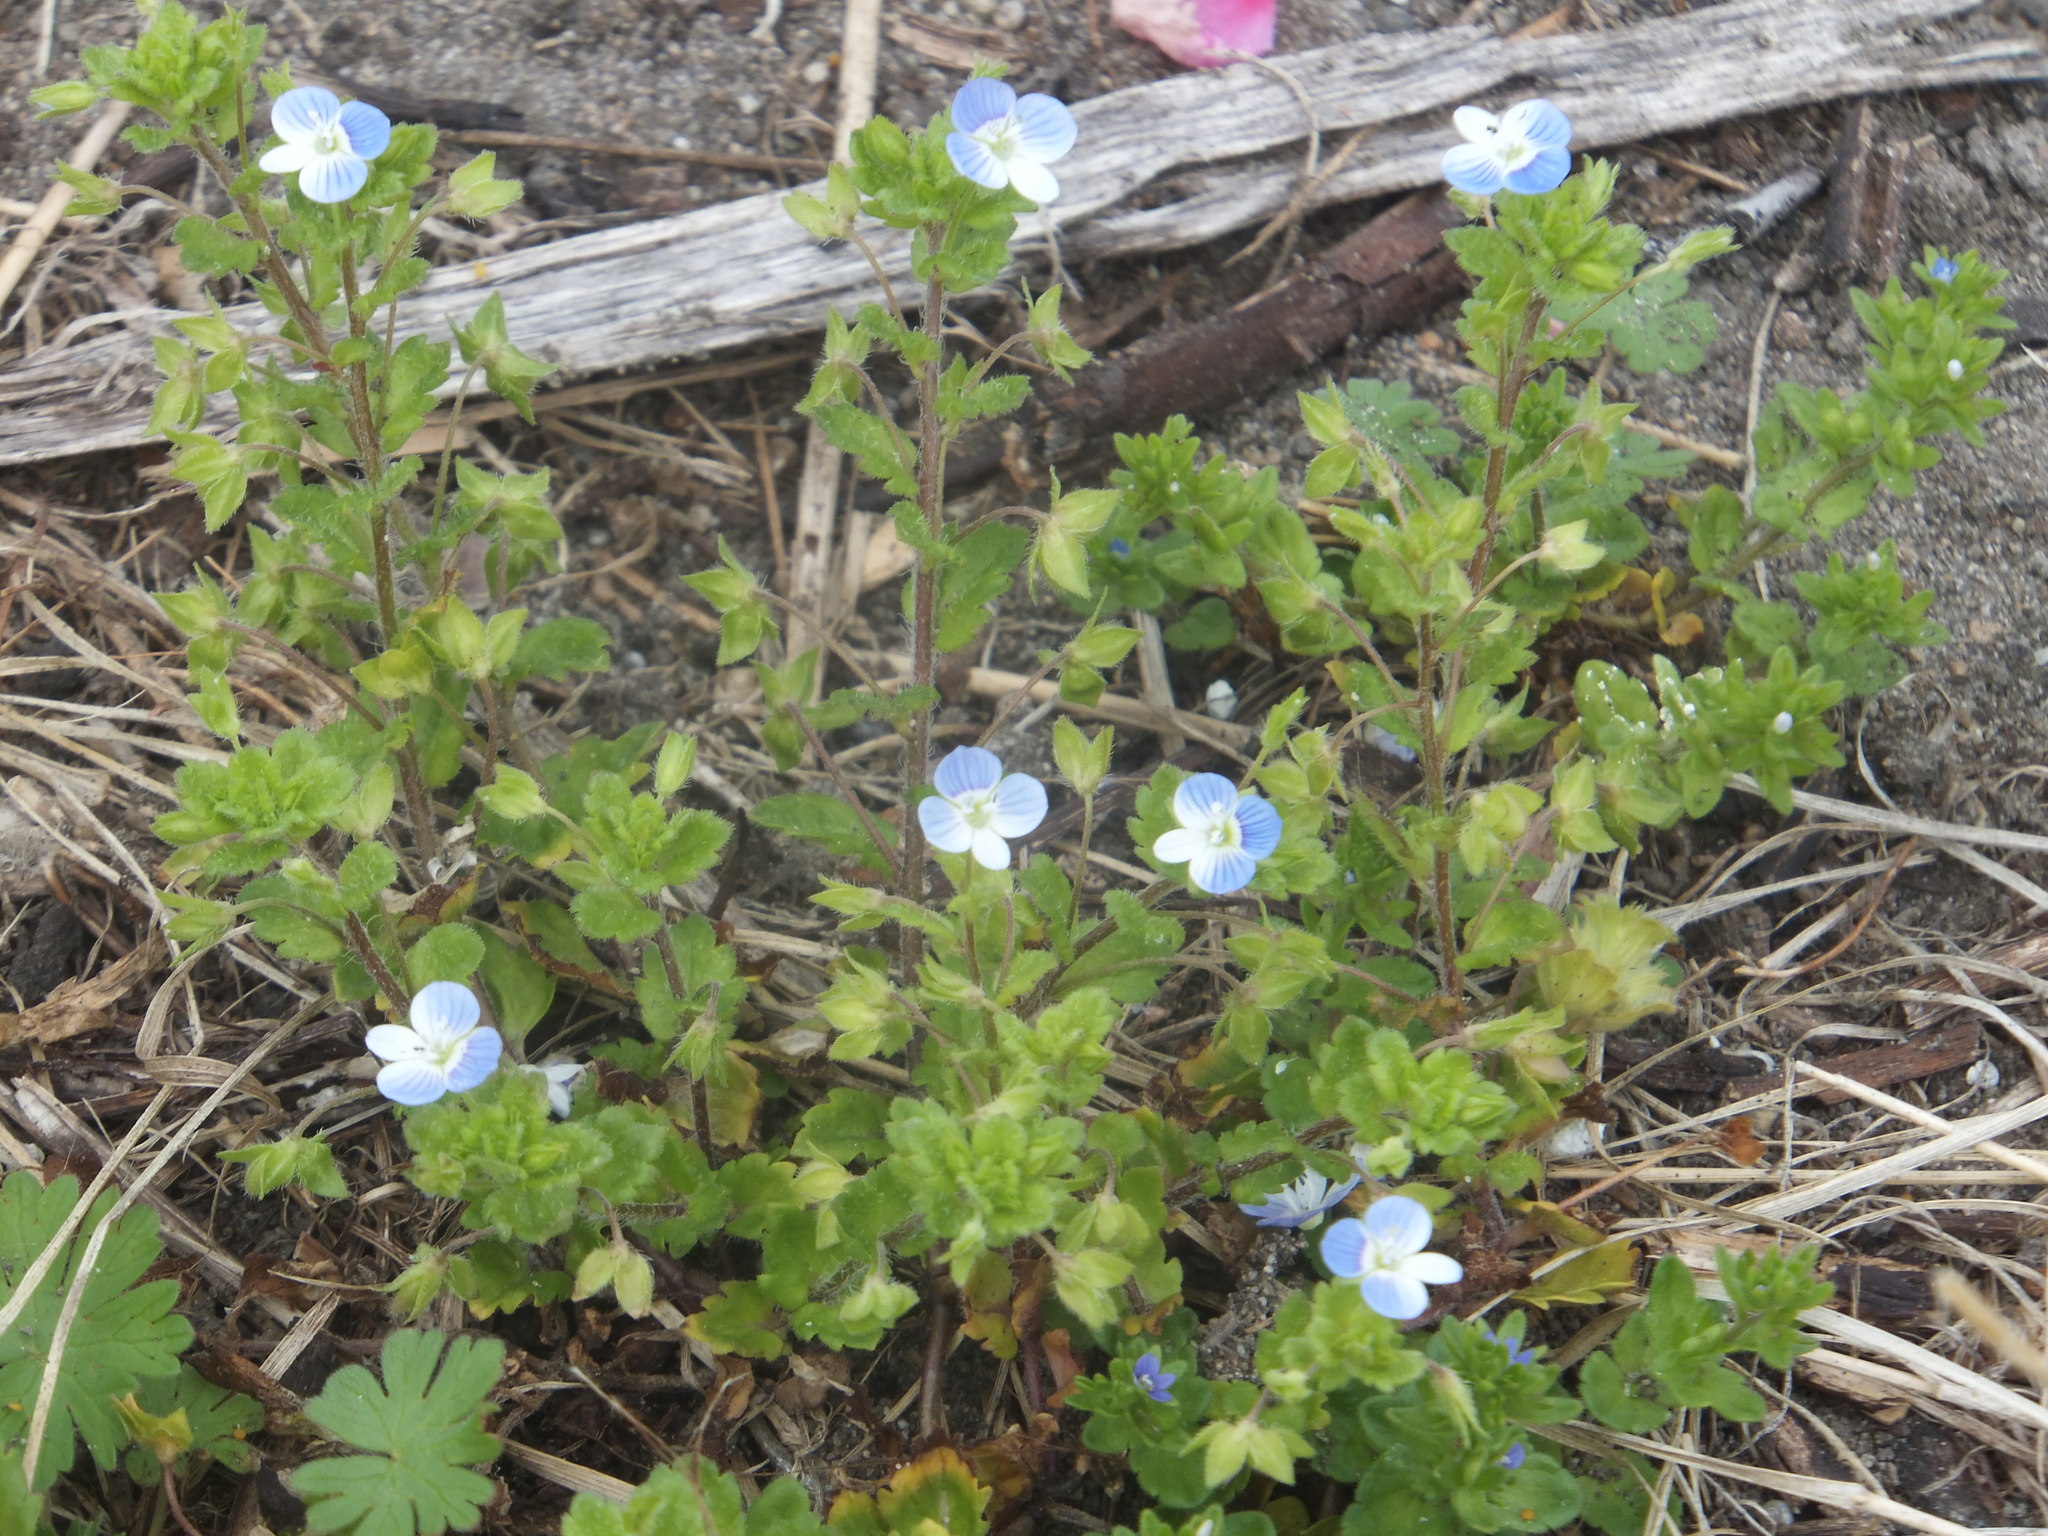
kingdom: Plantae
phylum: Tracheophyta
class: Magnoliopsida
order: Lamiales
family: Plantaginaceae
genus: Veronica
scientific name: Veronica persica
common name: Common field-speedwell
